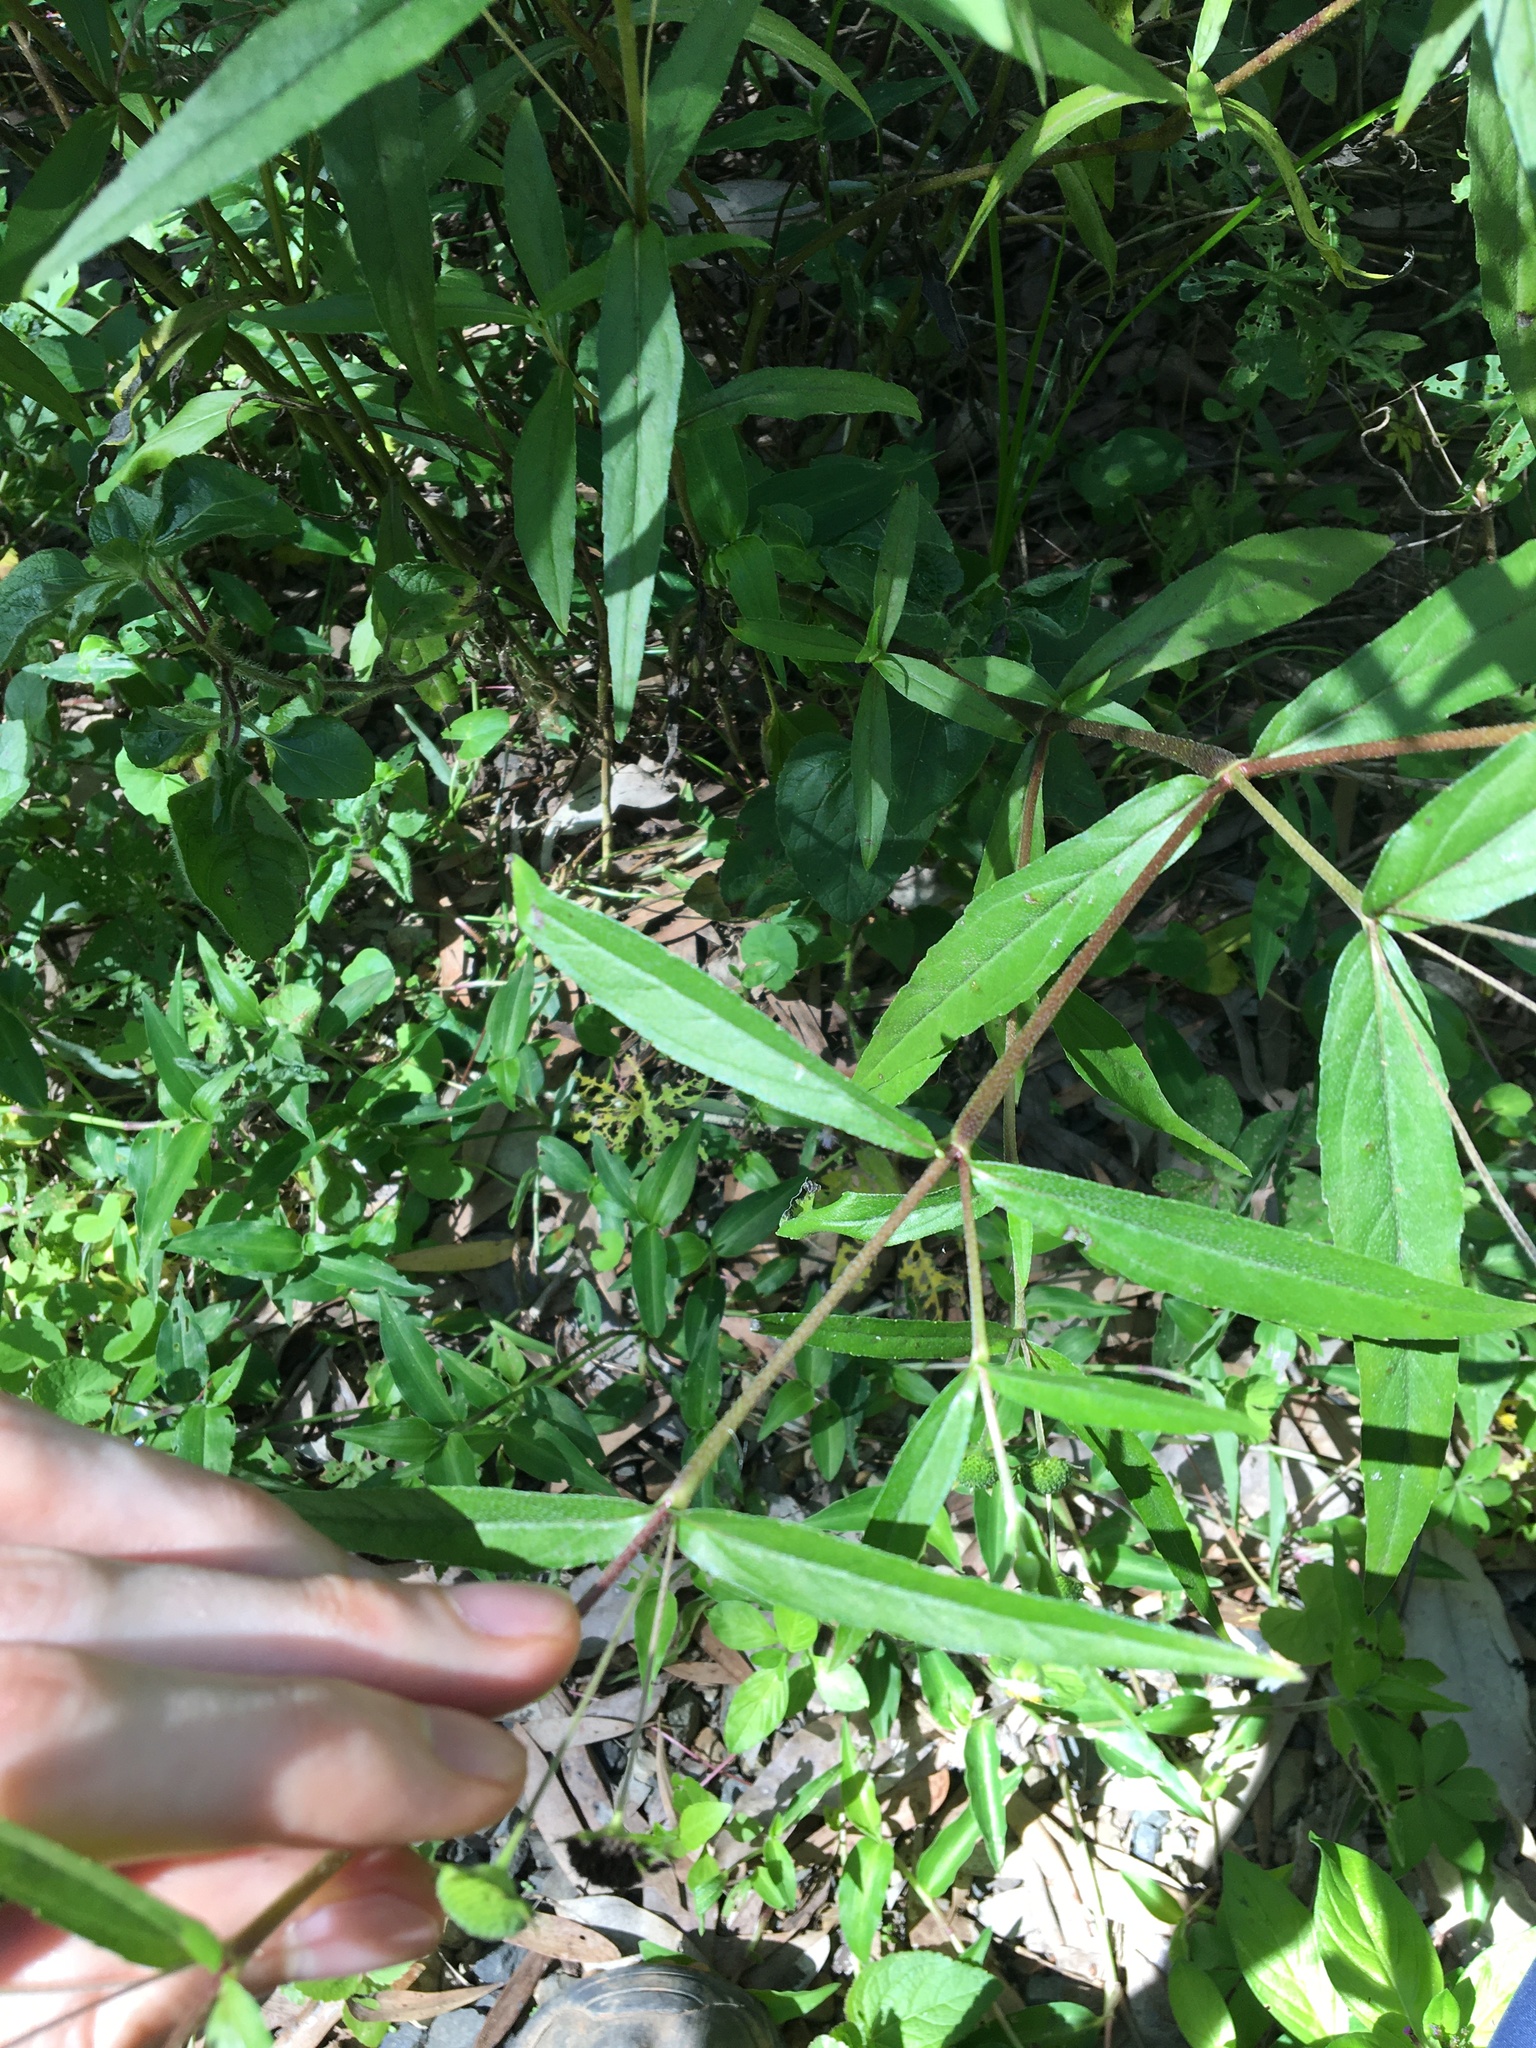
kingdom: Plantae
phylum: Tracheophyta
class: Magnoliopsida
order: Asterales
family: Asteraceae
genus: Eclipta
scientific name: Eclipta prostrata
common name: False daisy
